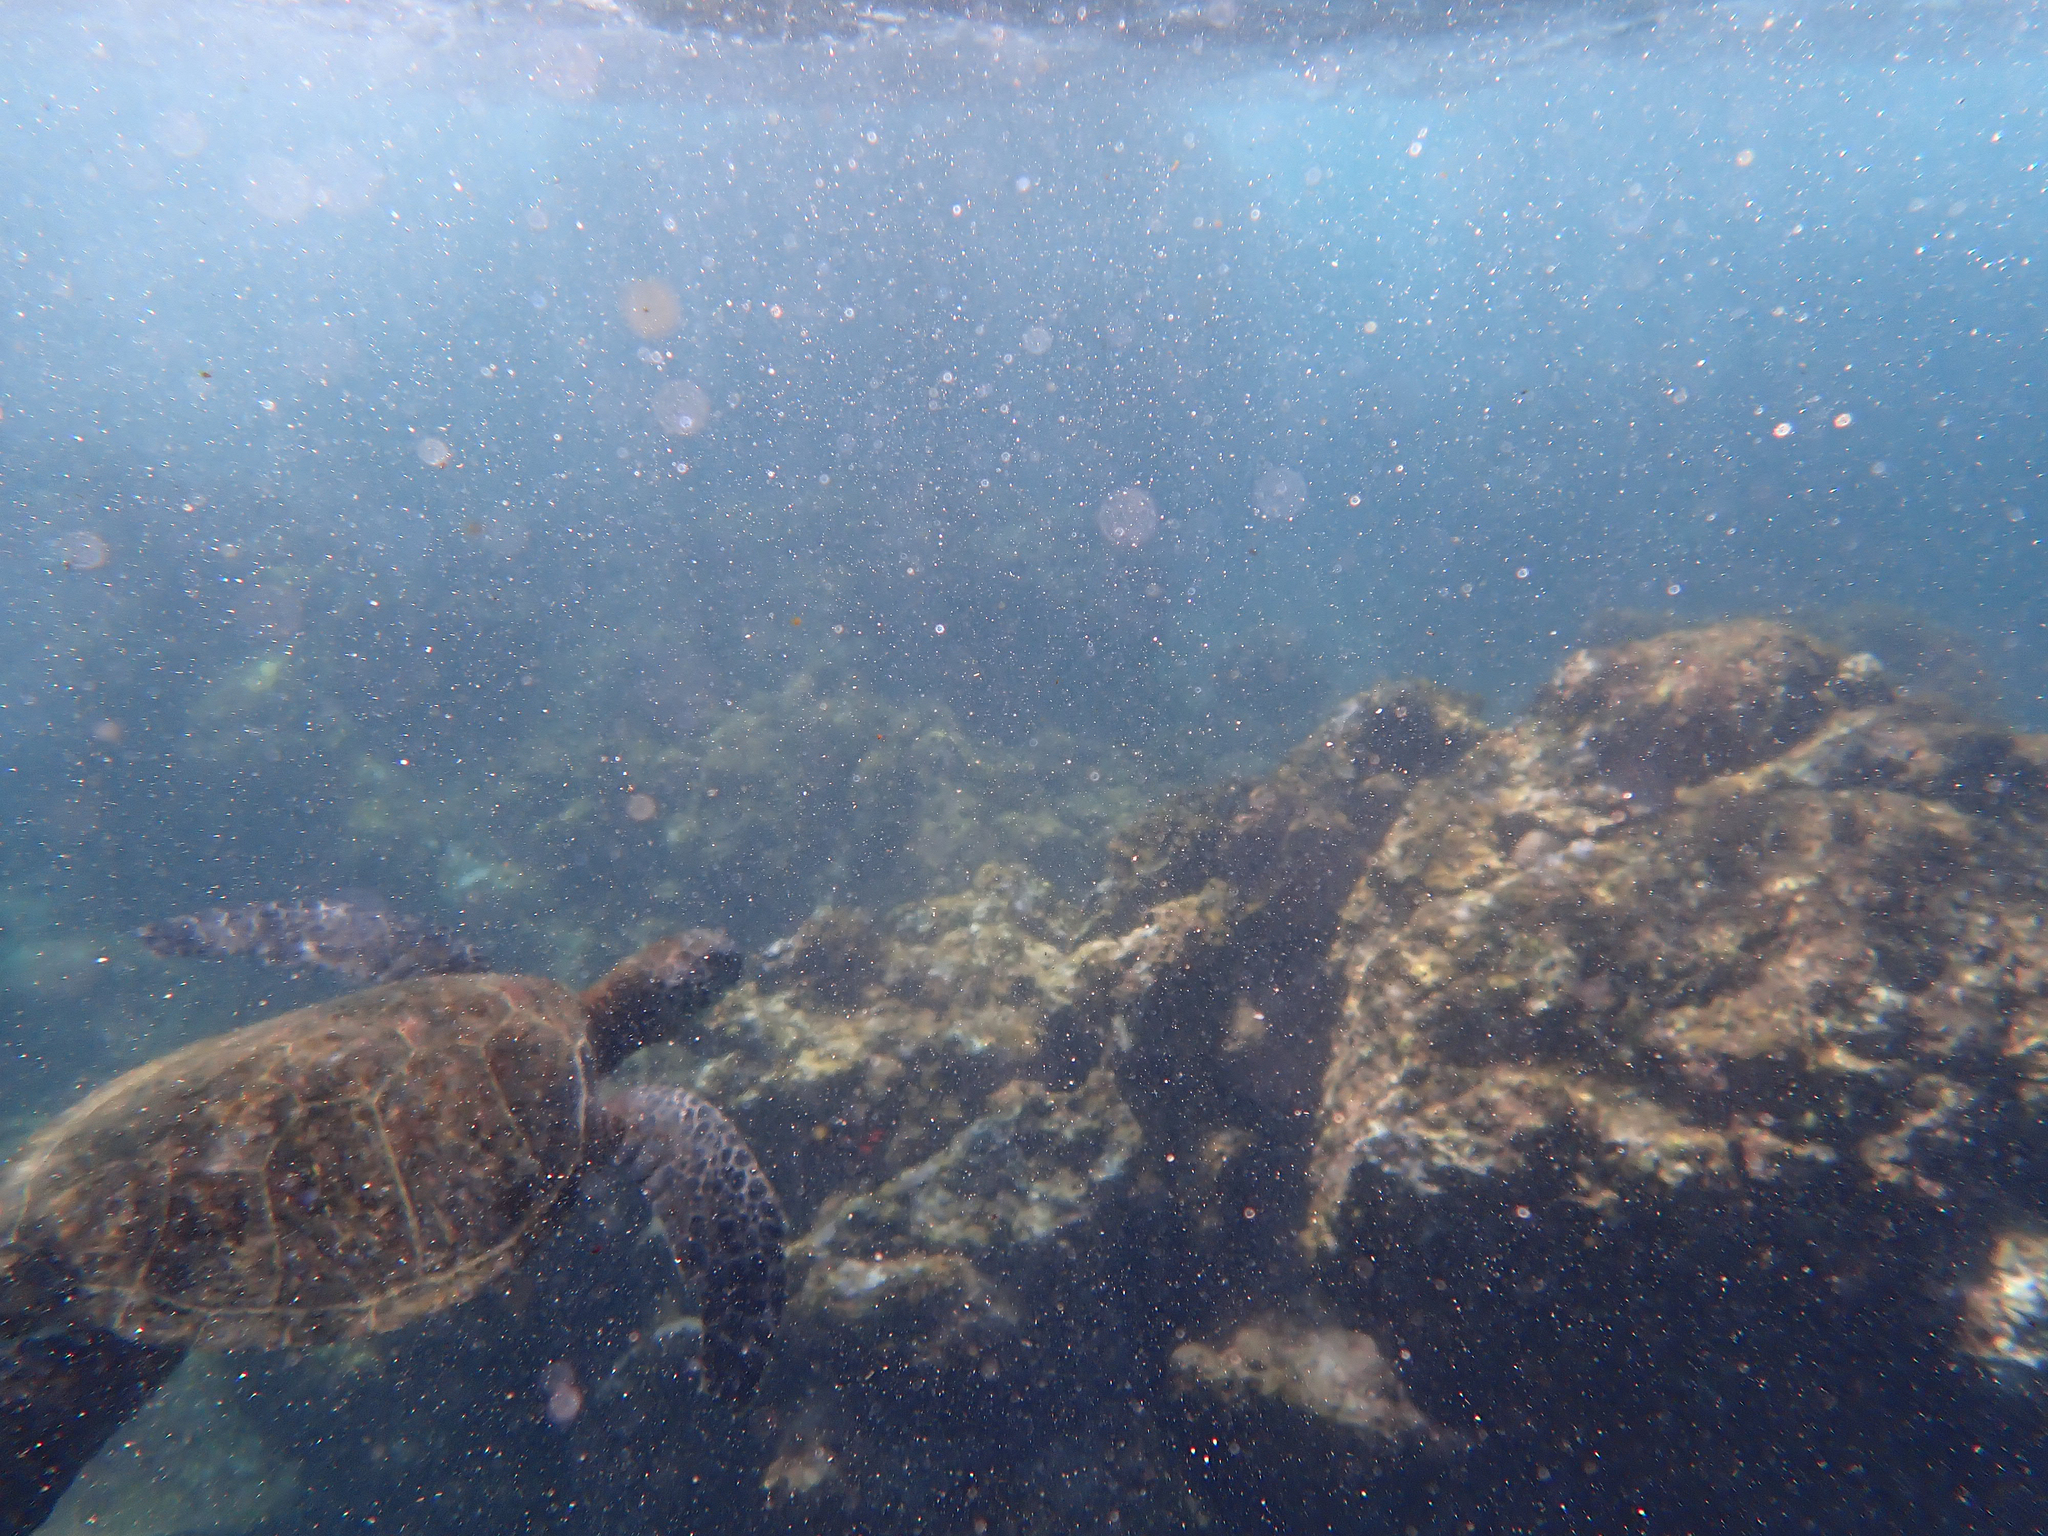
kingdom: Animalia
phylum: Chordata
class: Testudines
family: Cheloniidae
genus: Chelonia
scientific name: Chelonia mydas
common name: Green turtle
